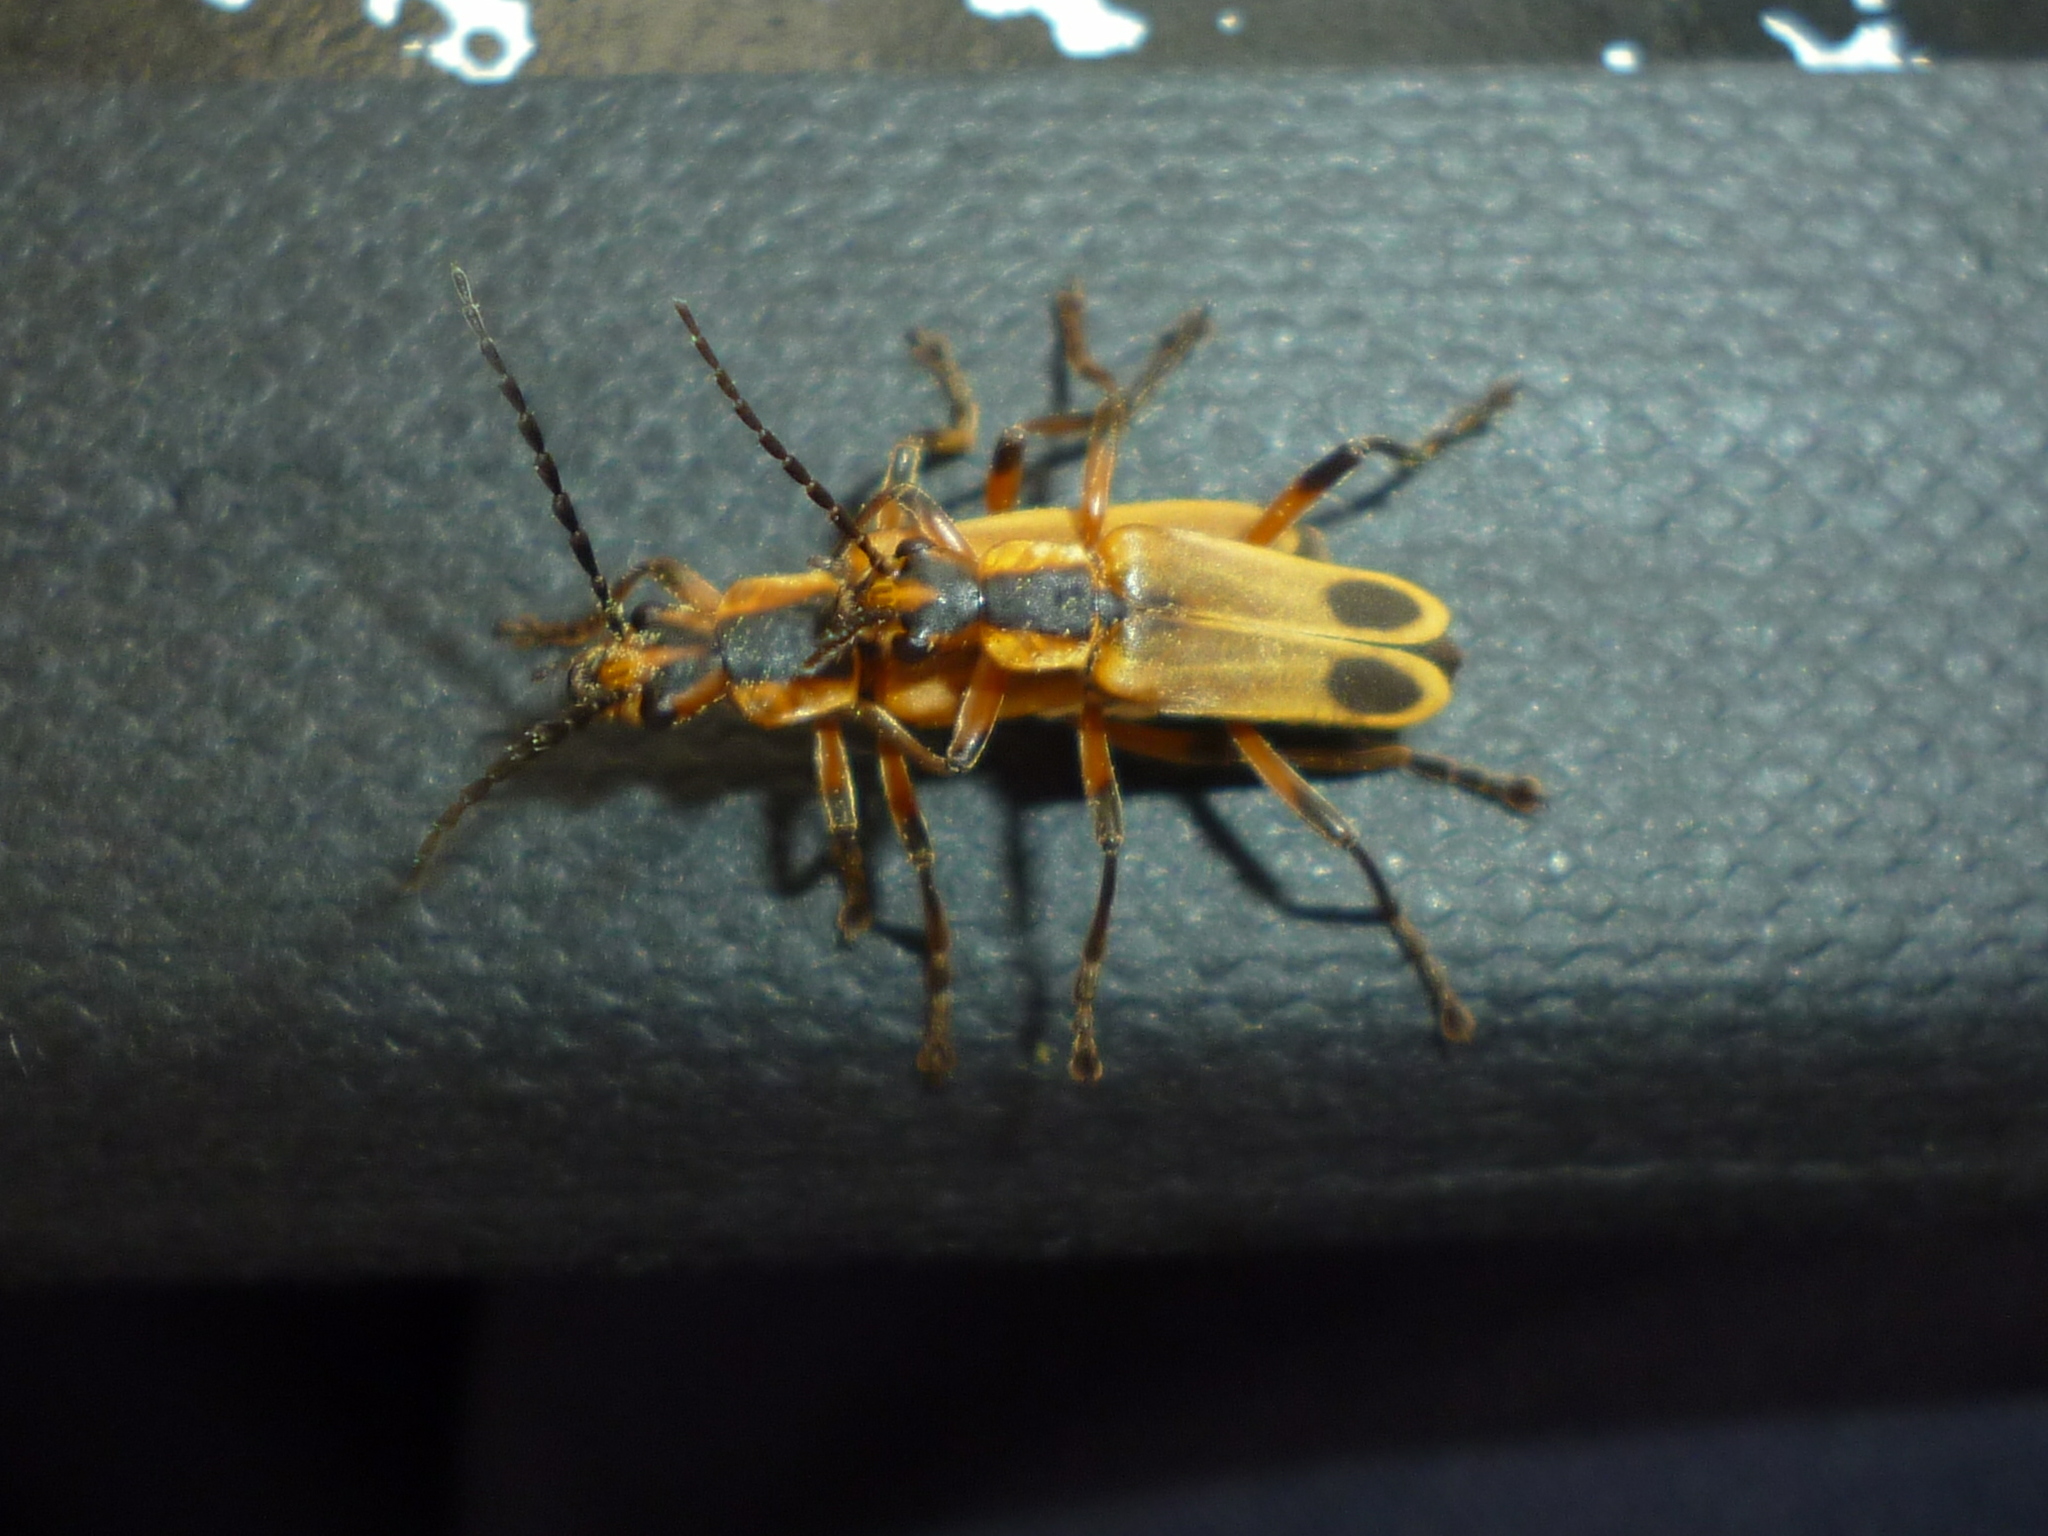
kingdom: Animalia
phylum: Arthropoda
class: Insecta
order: Coleoptera
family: Cantharidae
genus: Chauliognathus
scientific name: Chauliognathus marginatus
